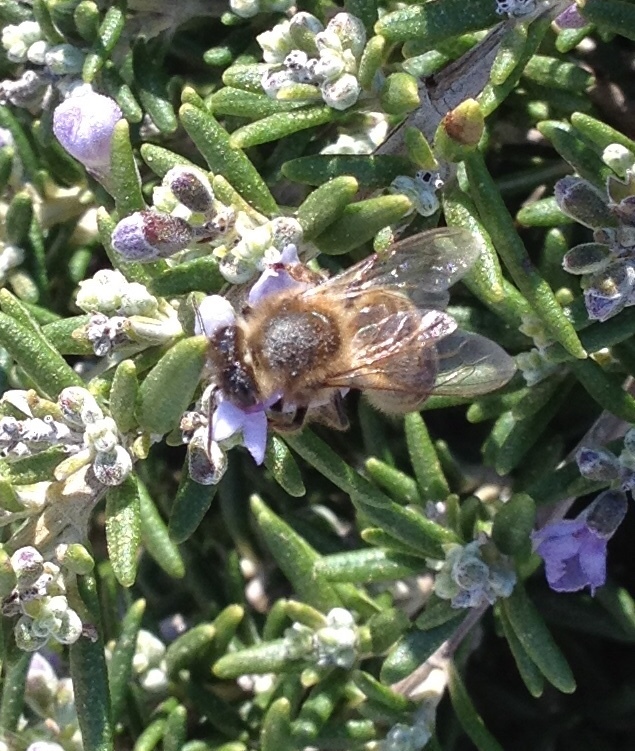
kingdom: Animalia
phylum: Arthropoda
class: Insecta
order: Hymenoptera
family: Apidae
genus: Apis
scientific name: Apis mellifera
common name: Honey bee
